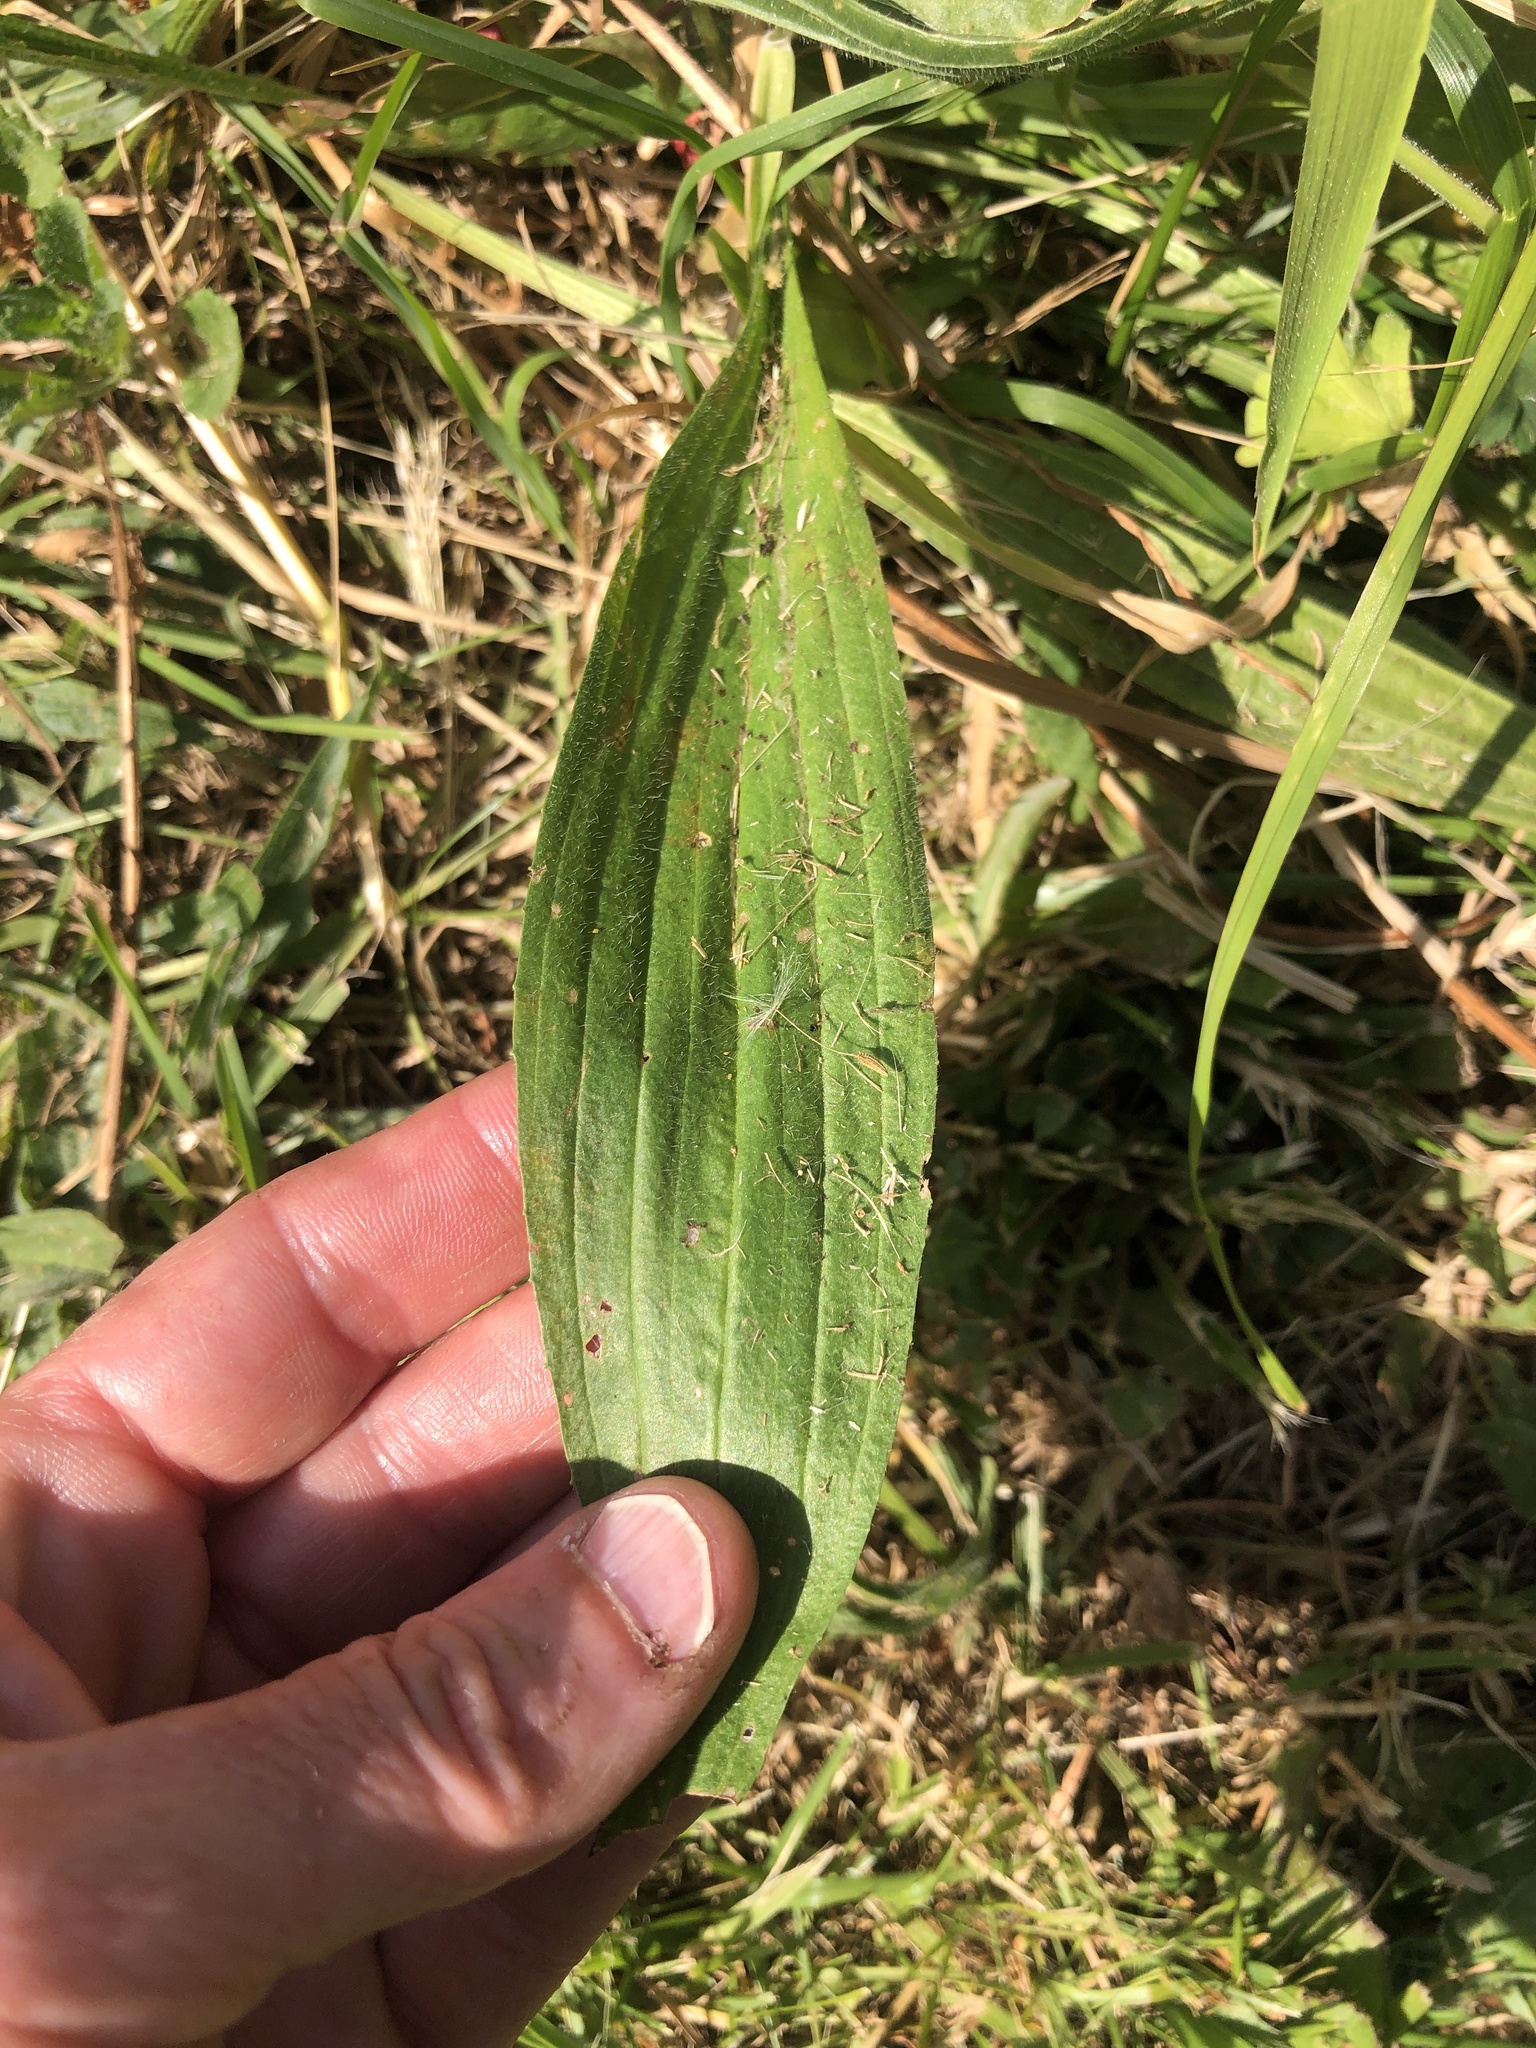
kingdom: Plantae
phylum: Tracheophyta
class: Magnoliopsida
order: Lamiales
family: Plantaginaceae
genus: Plantago
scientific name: Plantago lanceolata
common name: Ribwort plantain
